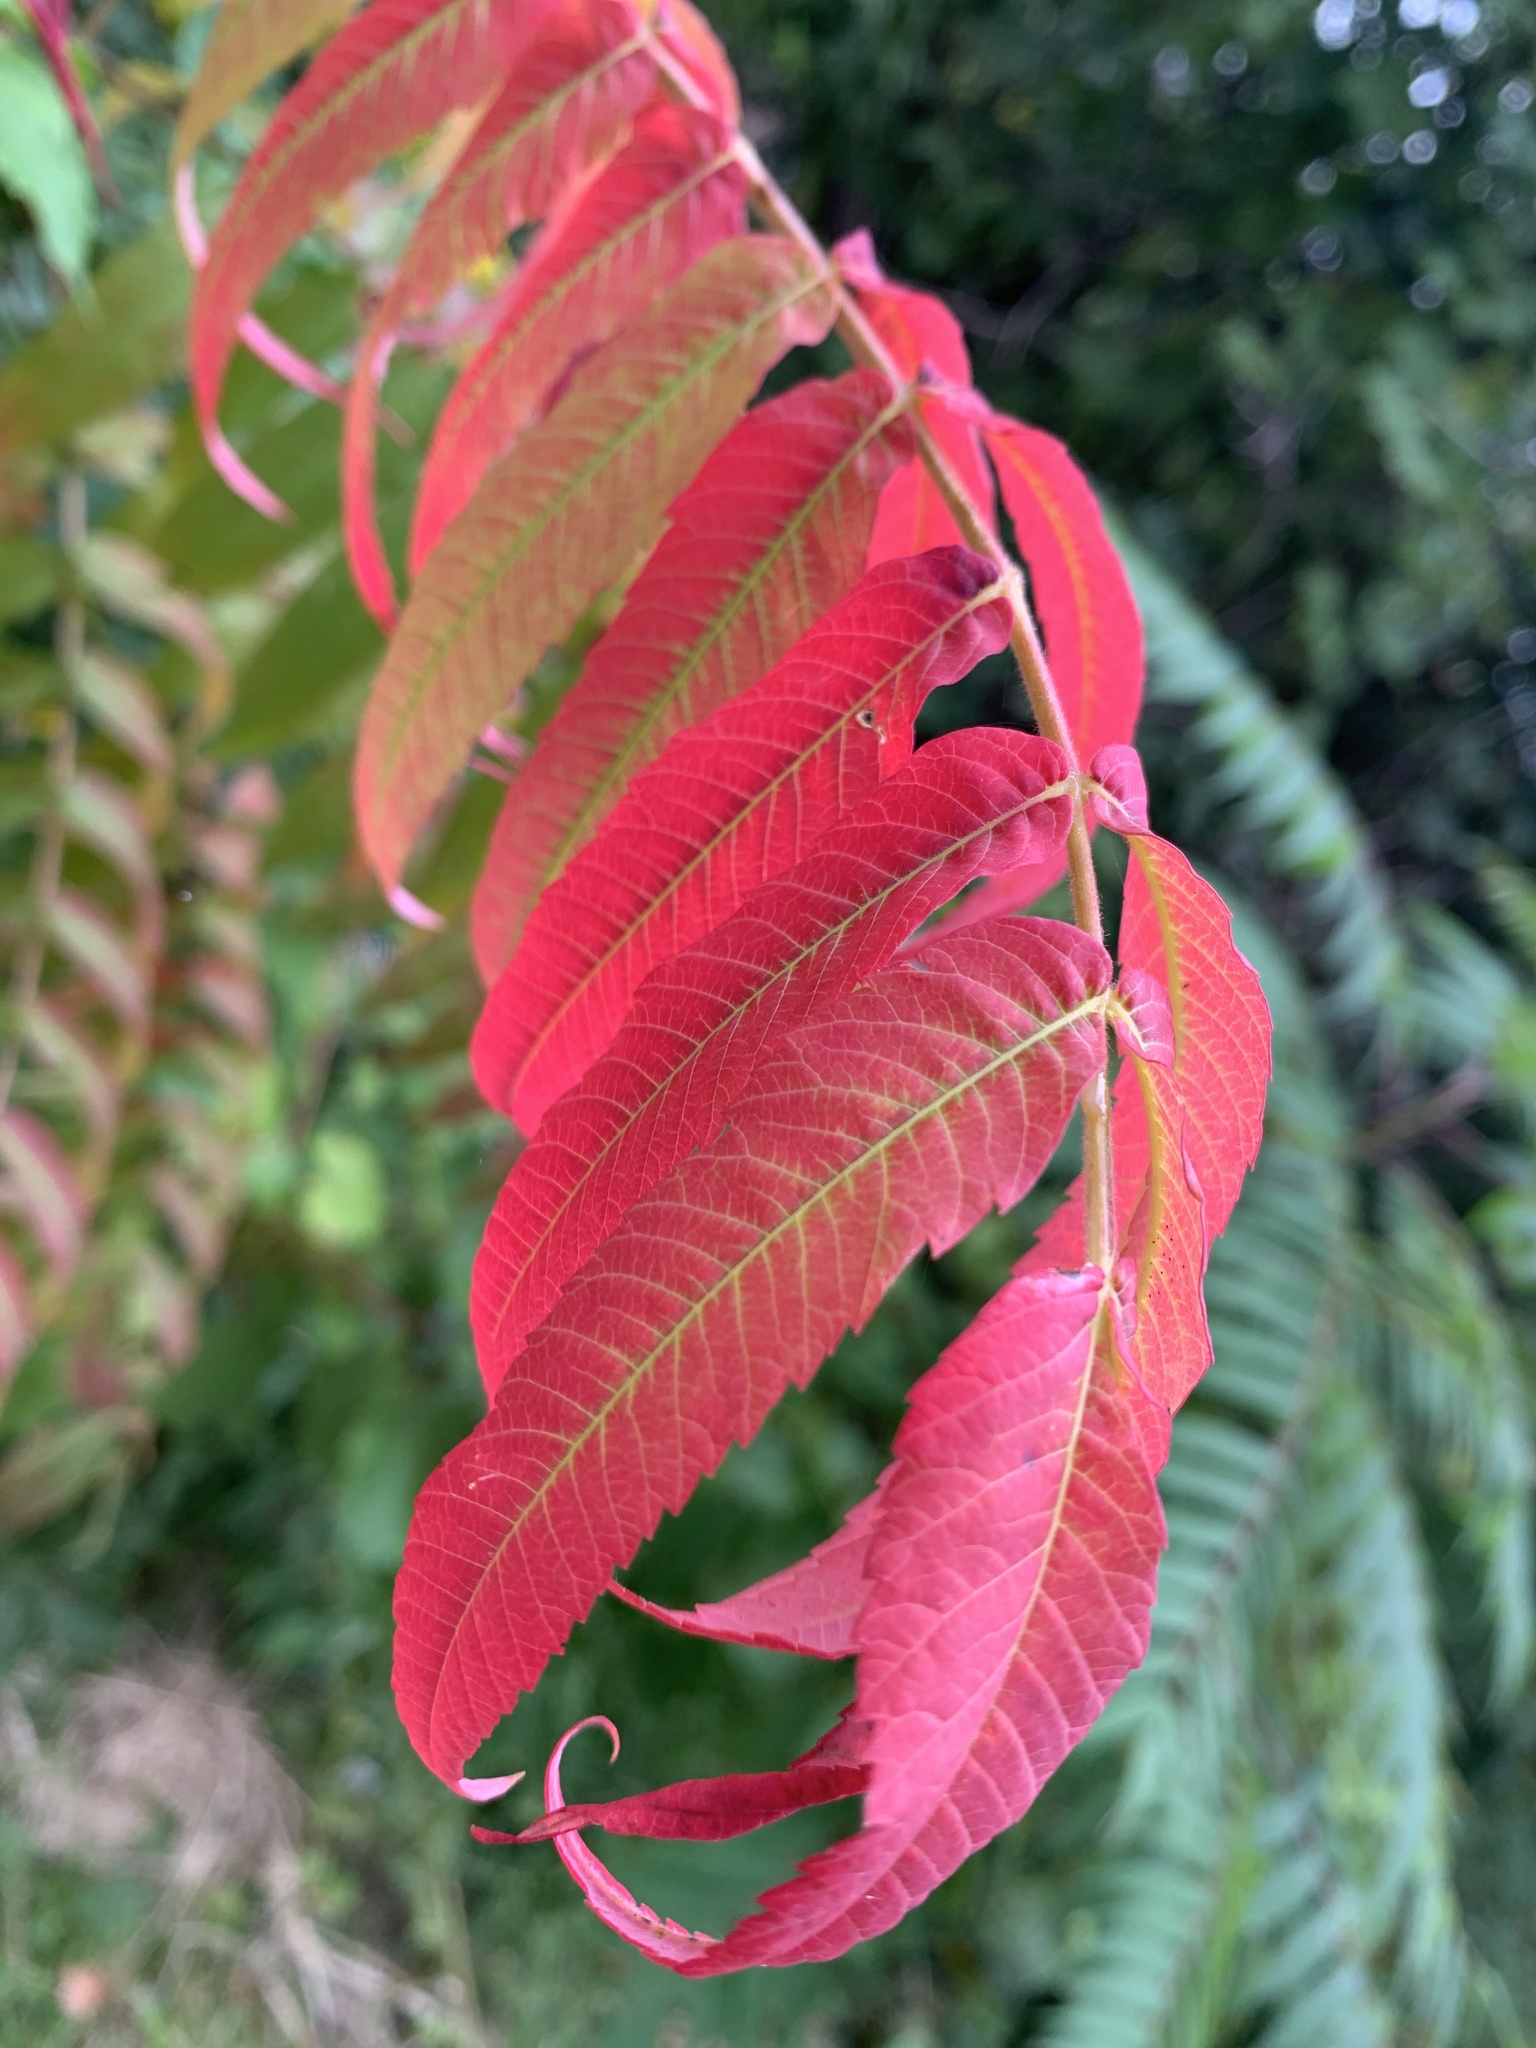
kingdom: Plantae
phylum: Tracheophyta
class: Magnoliopsida
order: Sapindales
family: Anacardiaceae
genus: Rhus
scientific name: Rhus typhina
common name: Staghorn sumac
